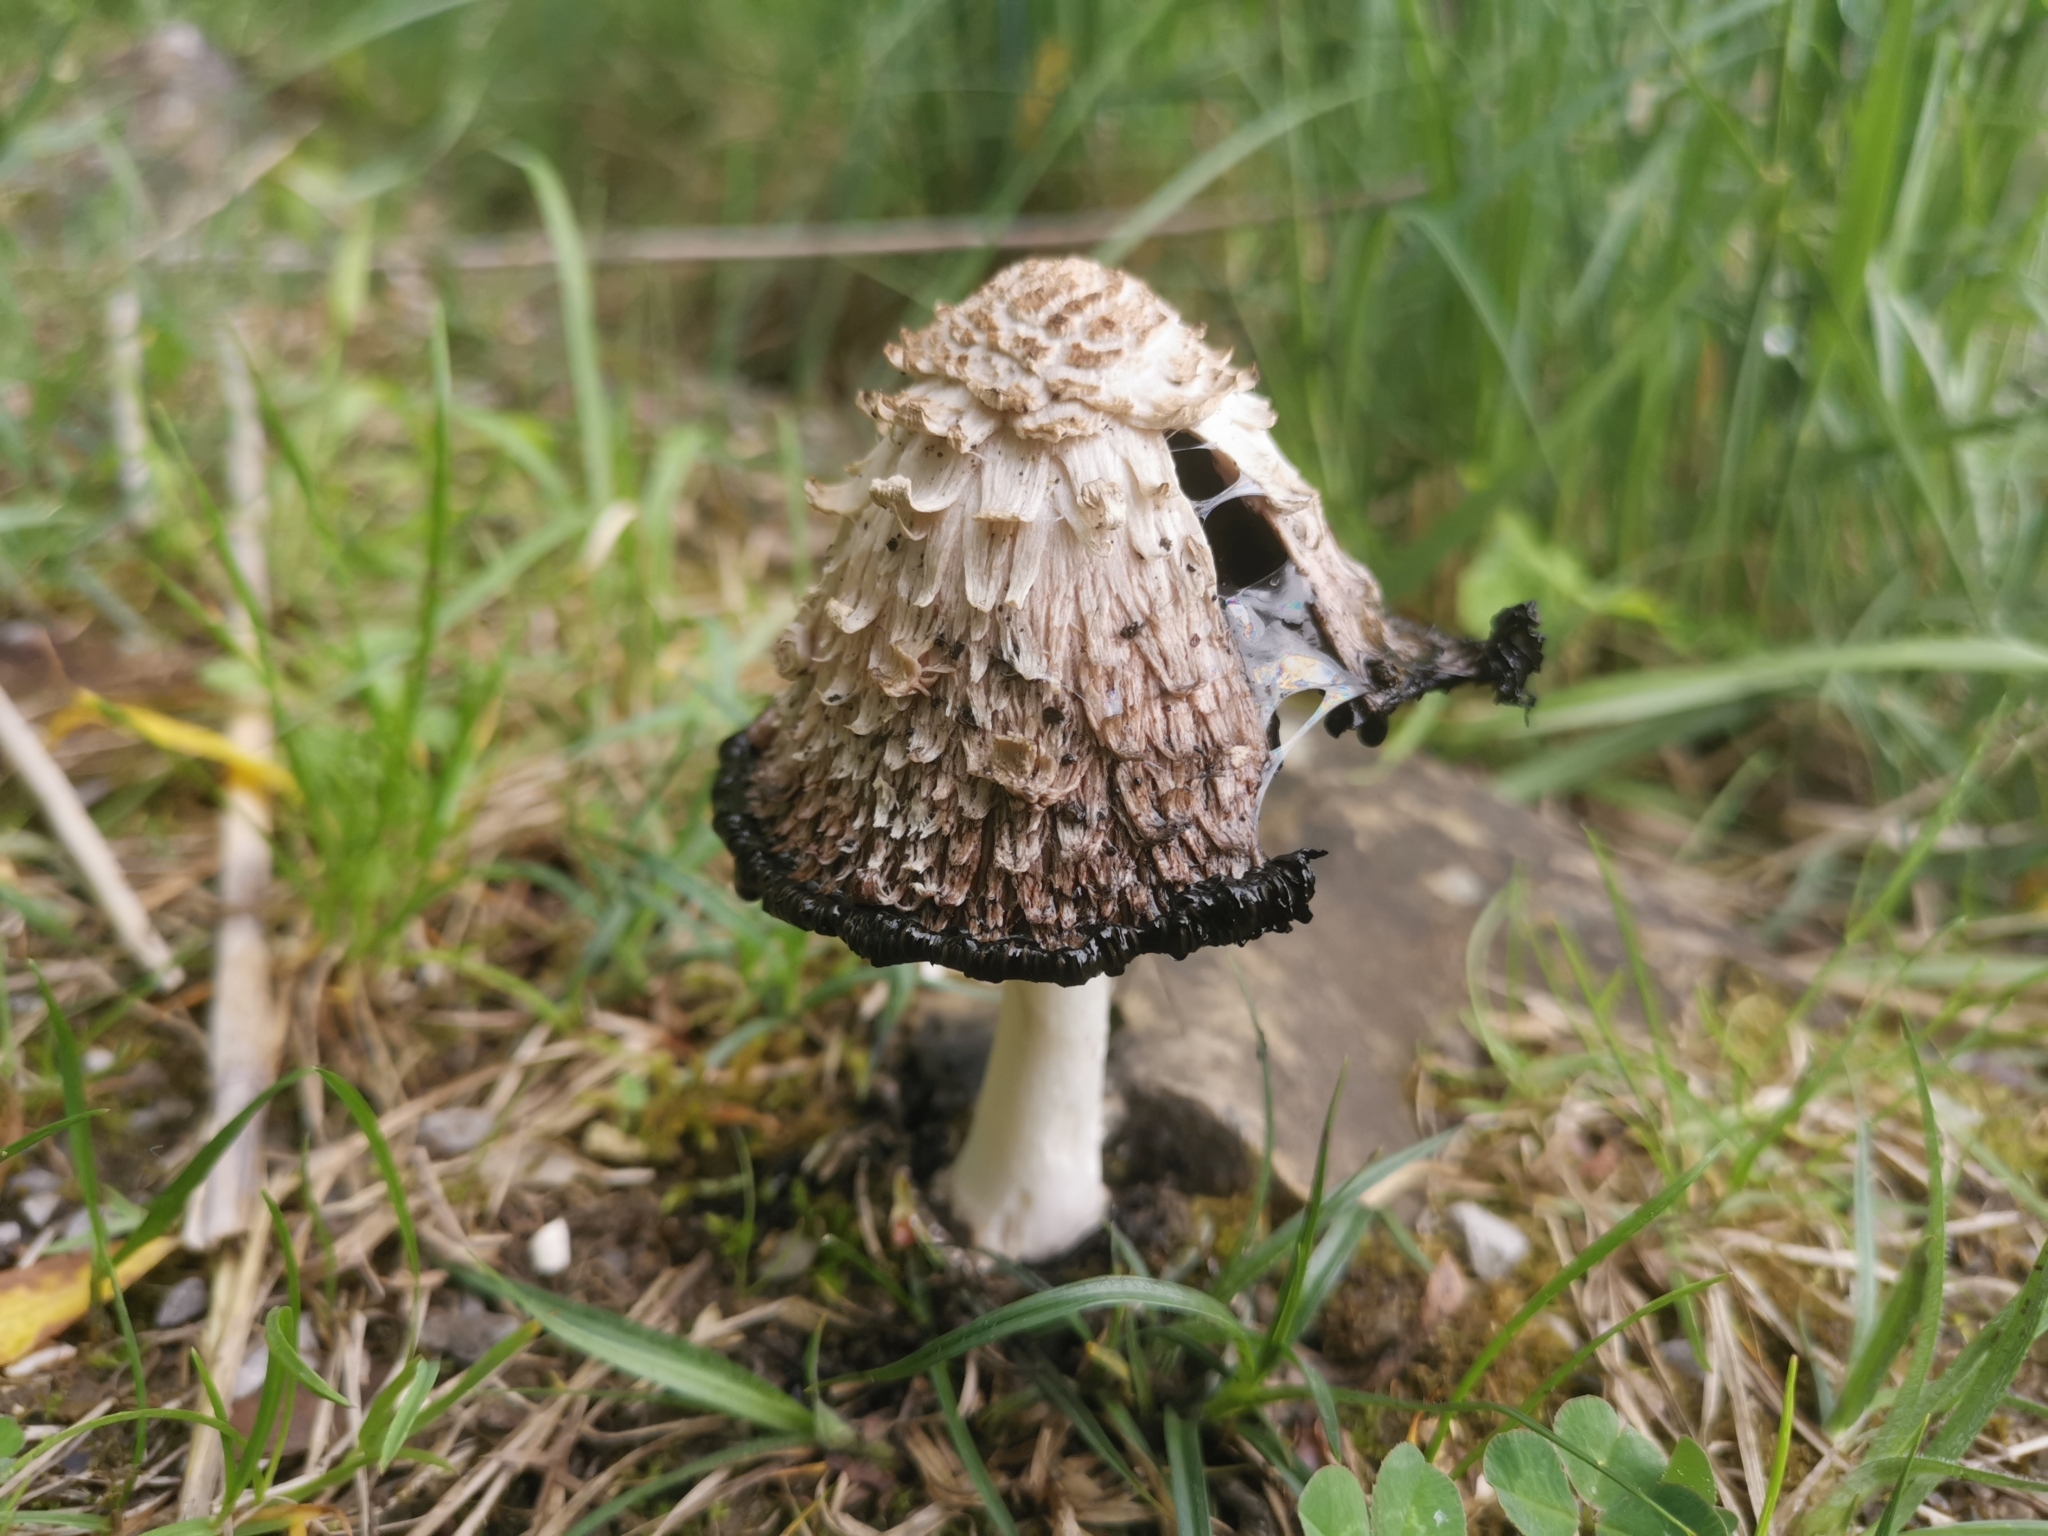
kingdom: Fungi
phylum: Basidiomycota
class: Agaricomycetes
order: Agaricales
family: Agaricaceae
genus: Coprinus
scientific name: Coprinus comatus
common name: Lawyer's wig
